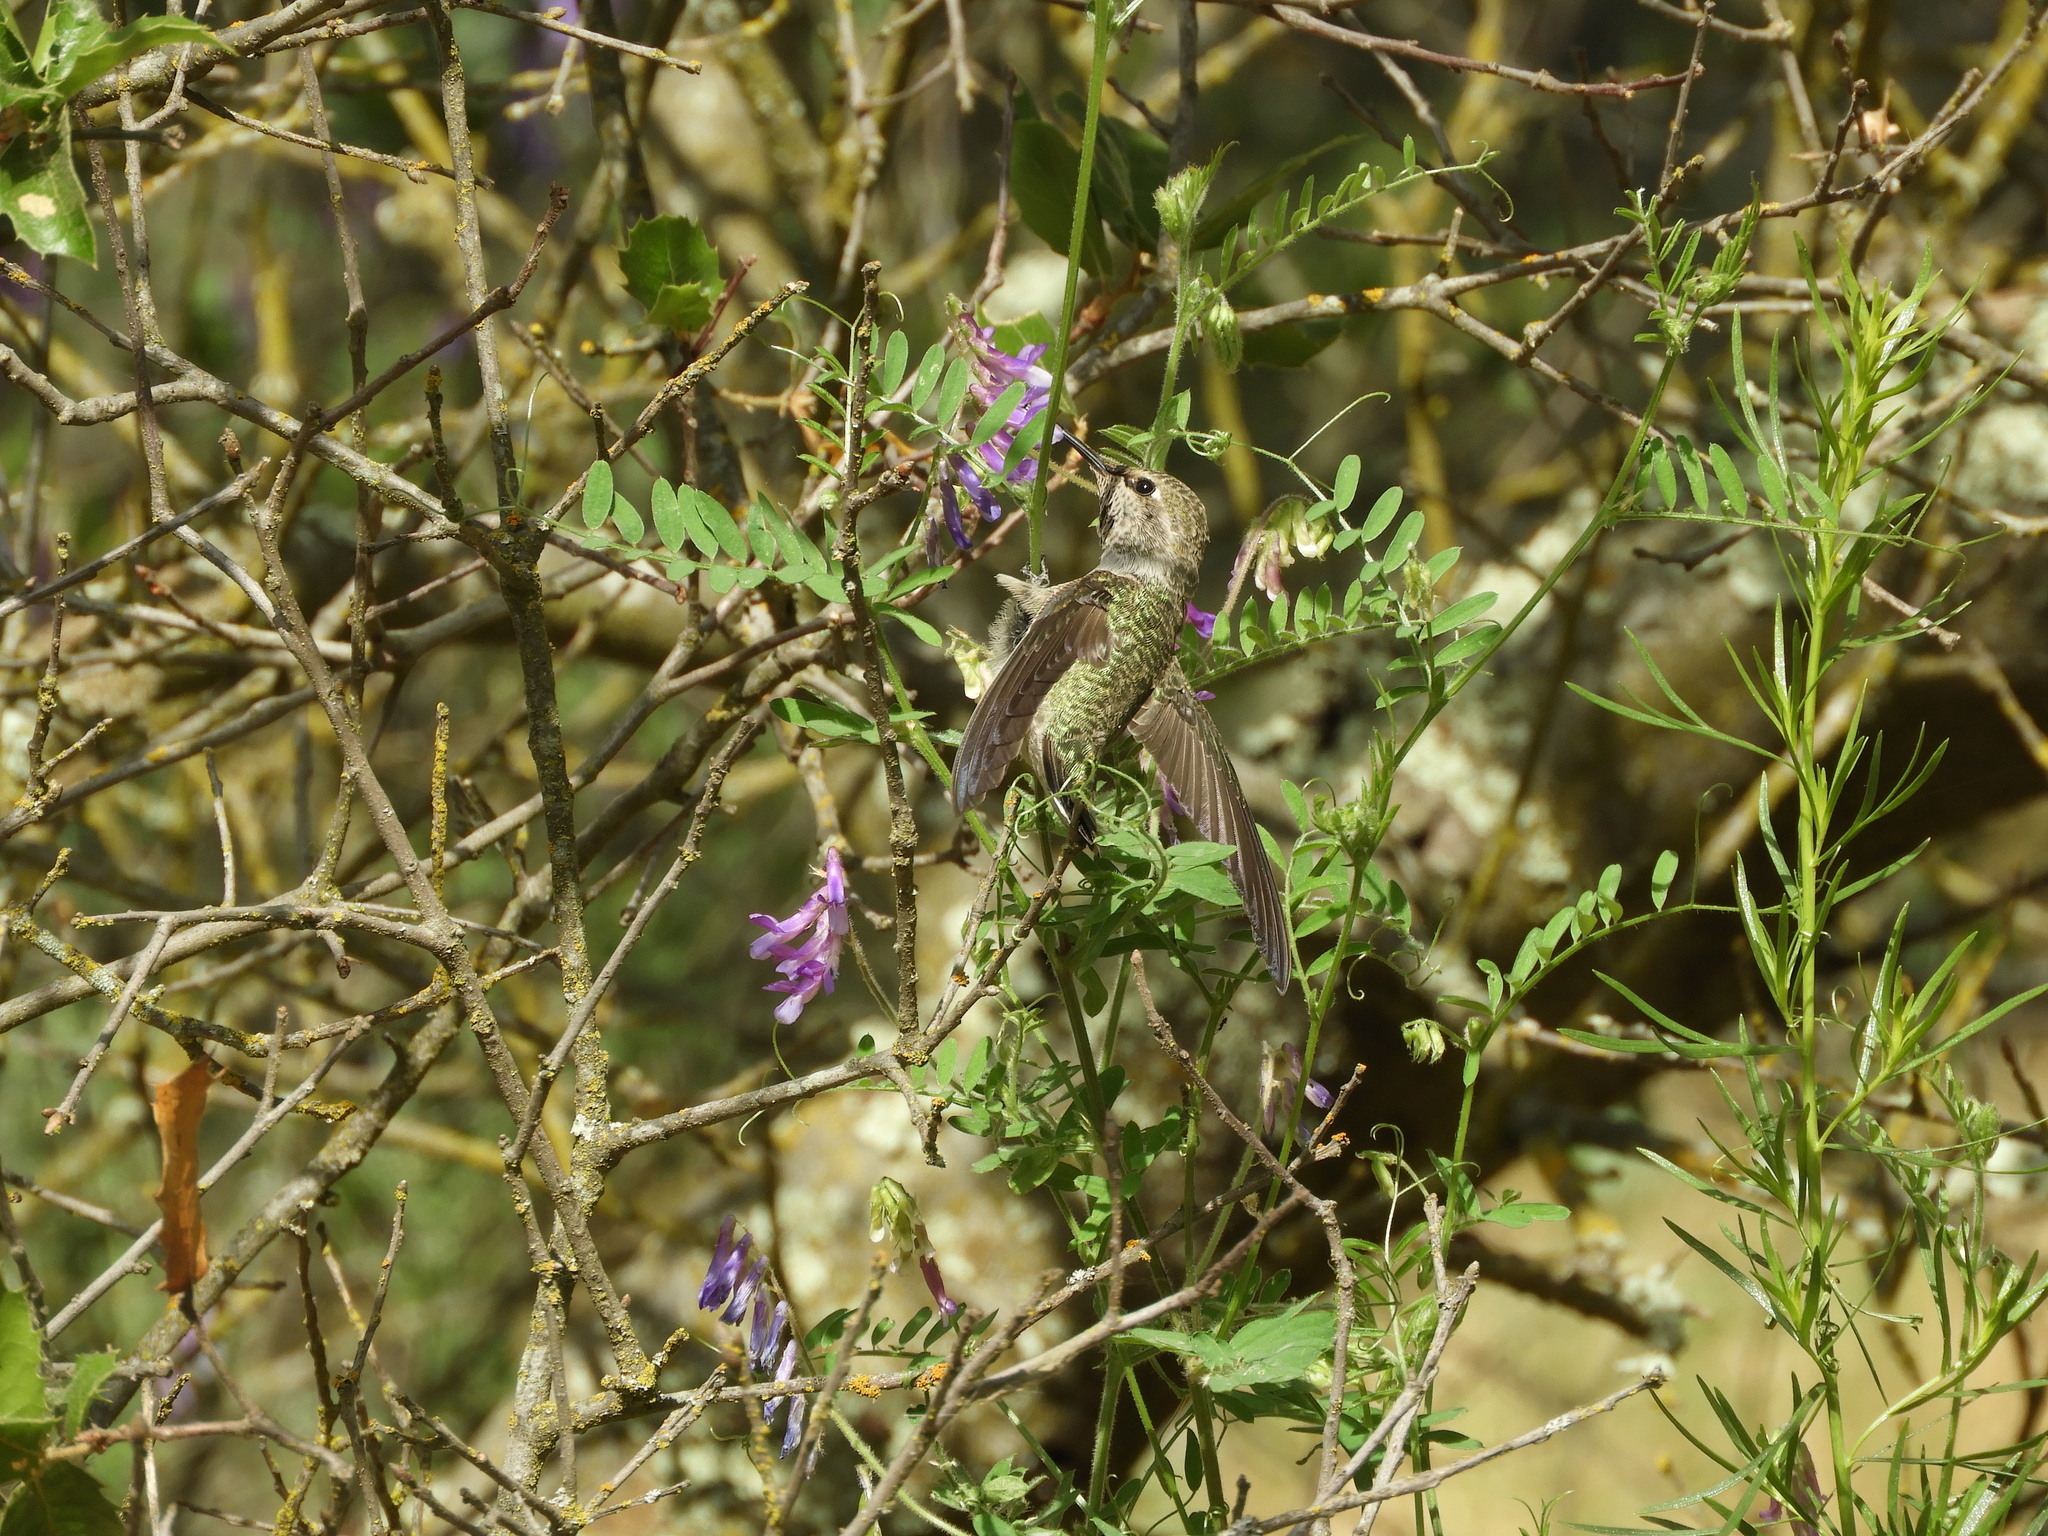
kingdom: Animalia
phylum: Chordata
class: Aves
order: Apodiformes
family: Trochilidae
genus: Calypte
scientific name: Calypte anna
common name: Anna's hummingbird
